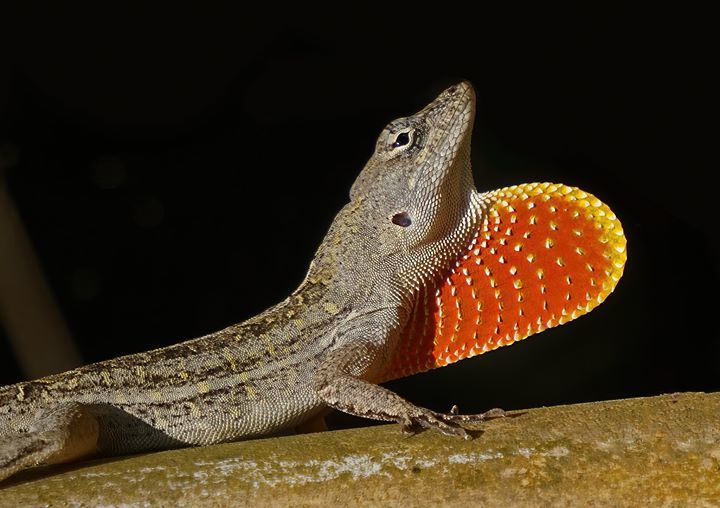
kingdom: Animalia
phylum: Chordata
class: Squamata
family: Dactyloidae
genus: Anolis
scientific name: Anolis sagrei
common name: Brown anole
